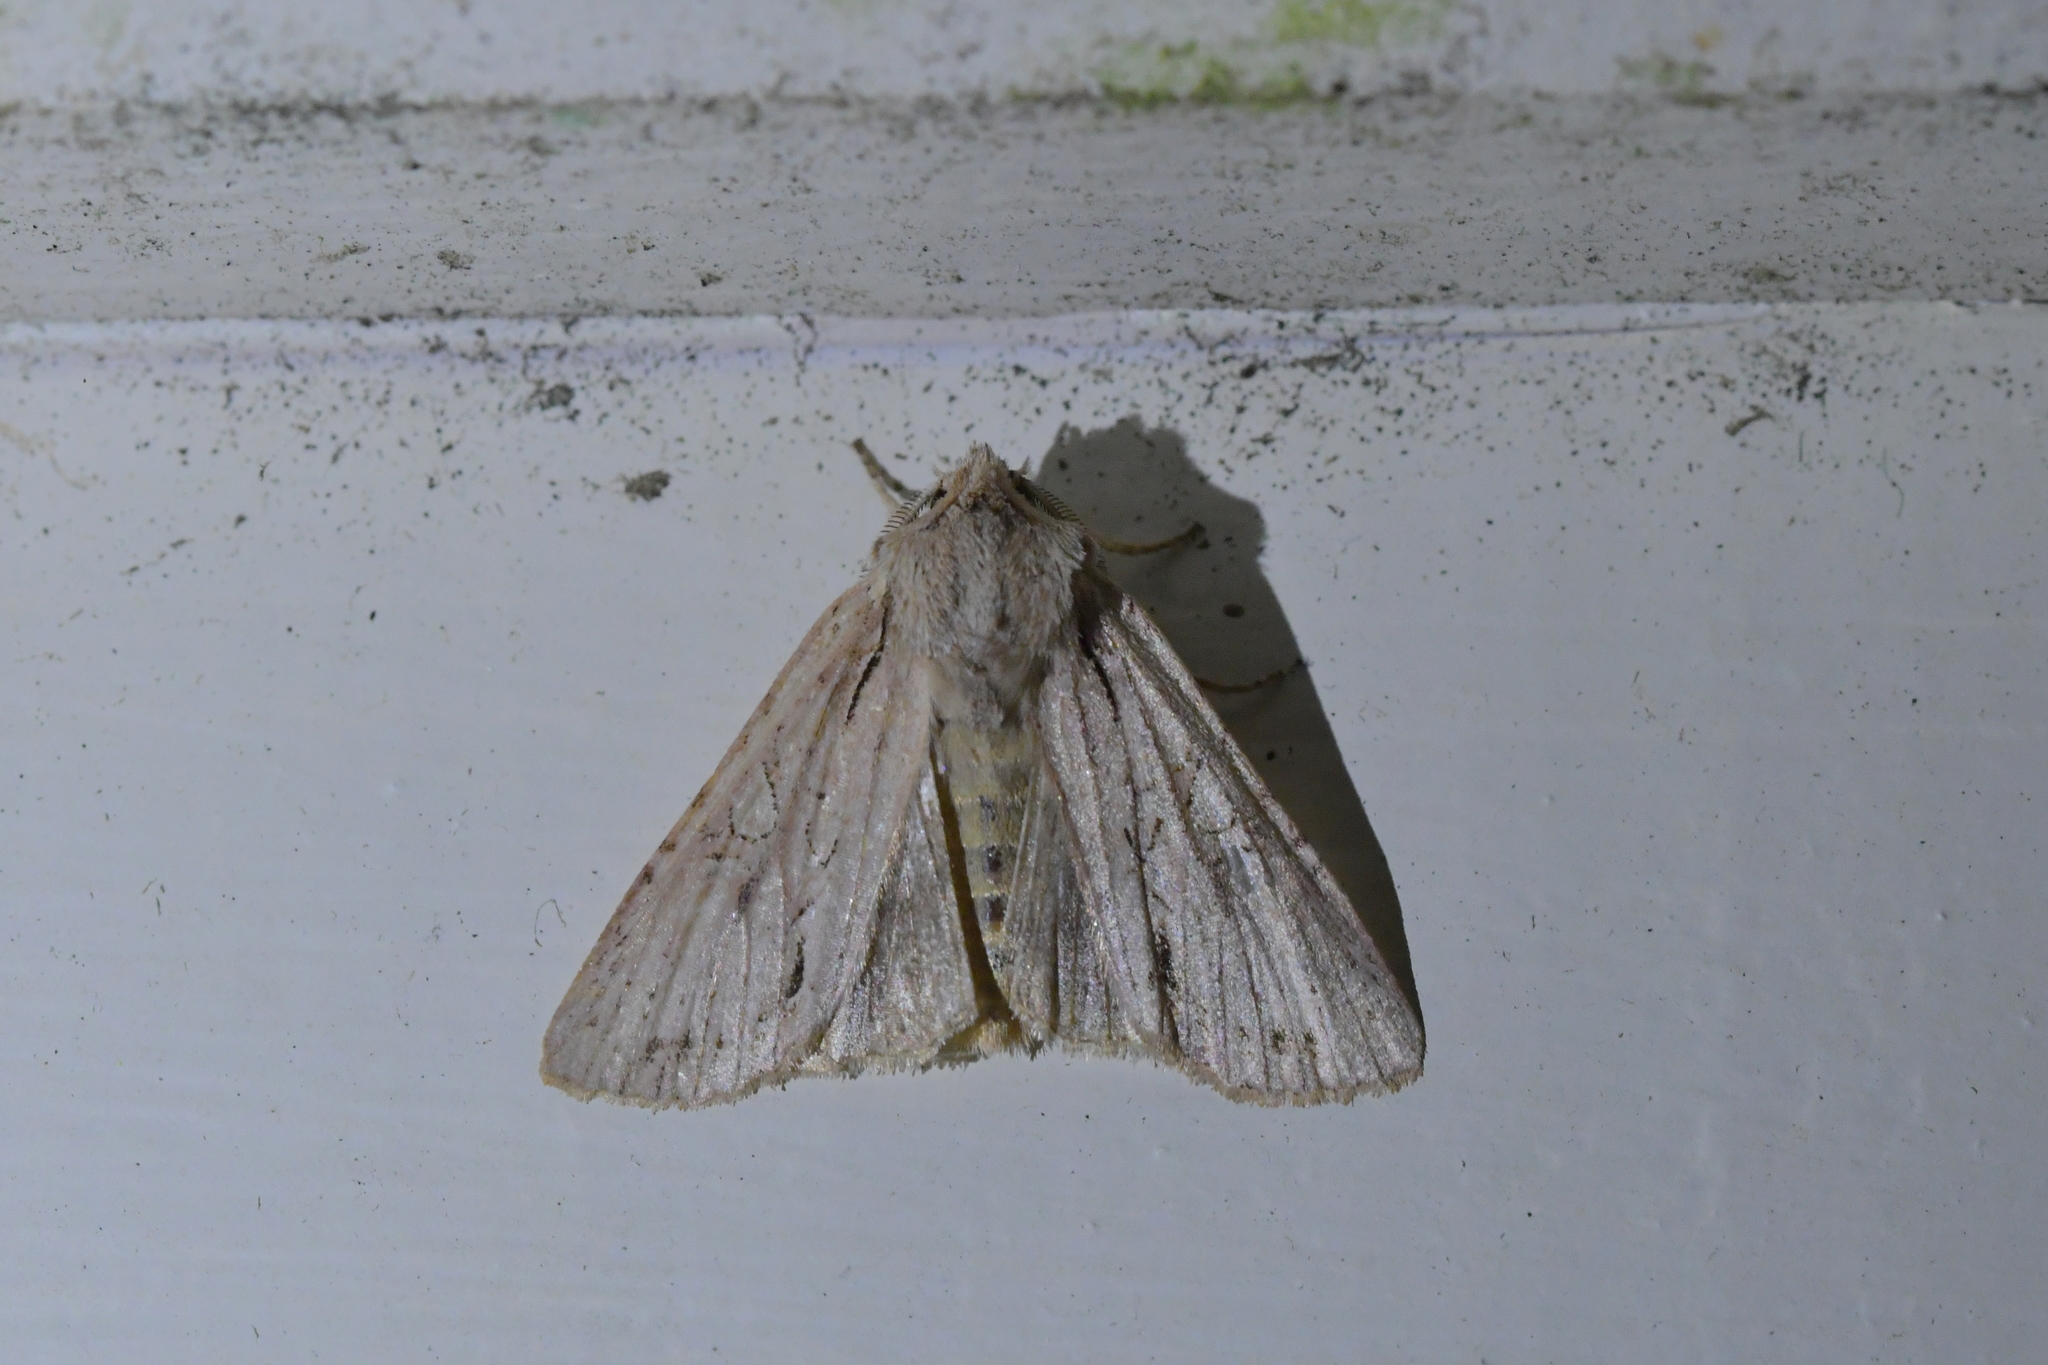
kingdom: Animalia
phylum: Arthropoda
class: Insecta
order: Lepidoptera
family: Noctuidae
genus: Ichneutica
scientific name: Ichneutica
